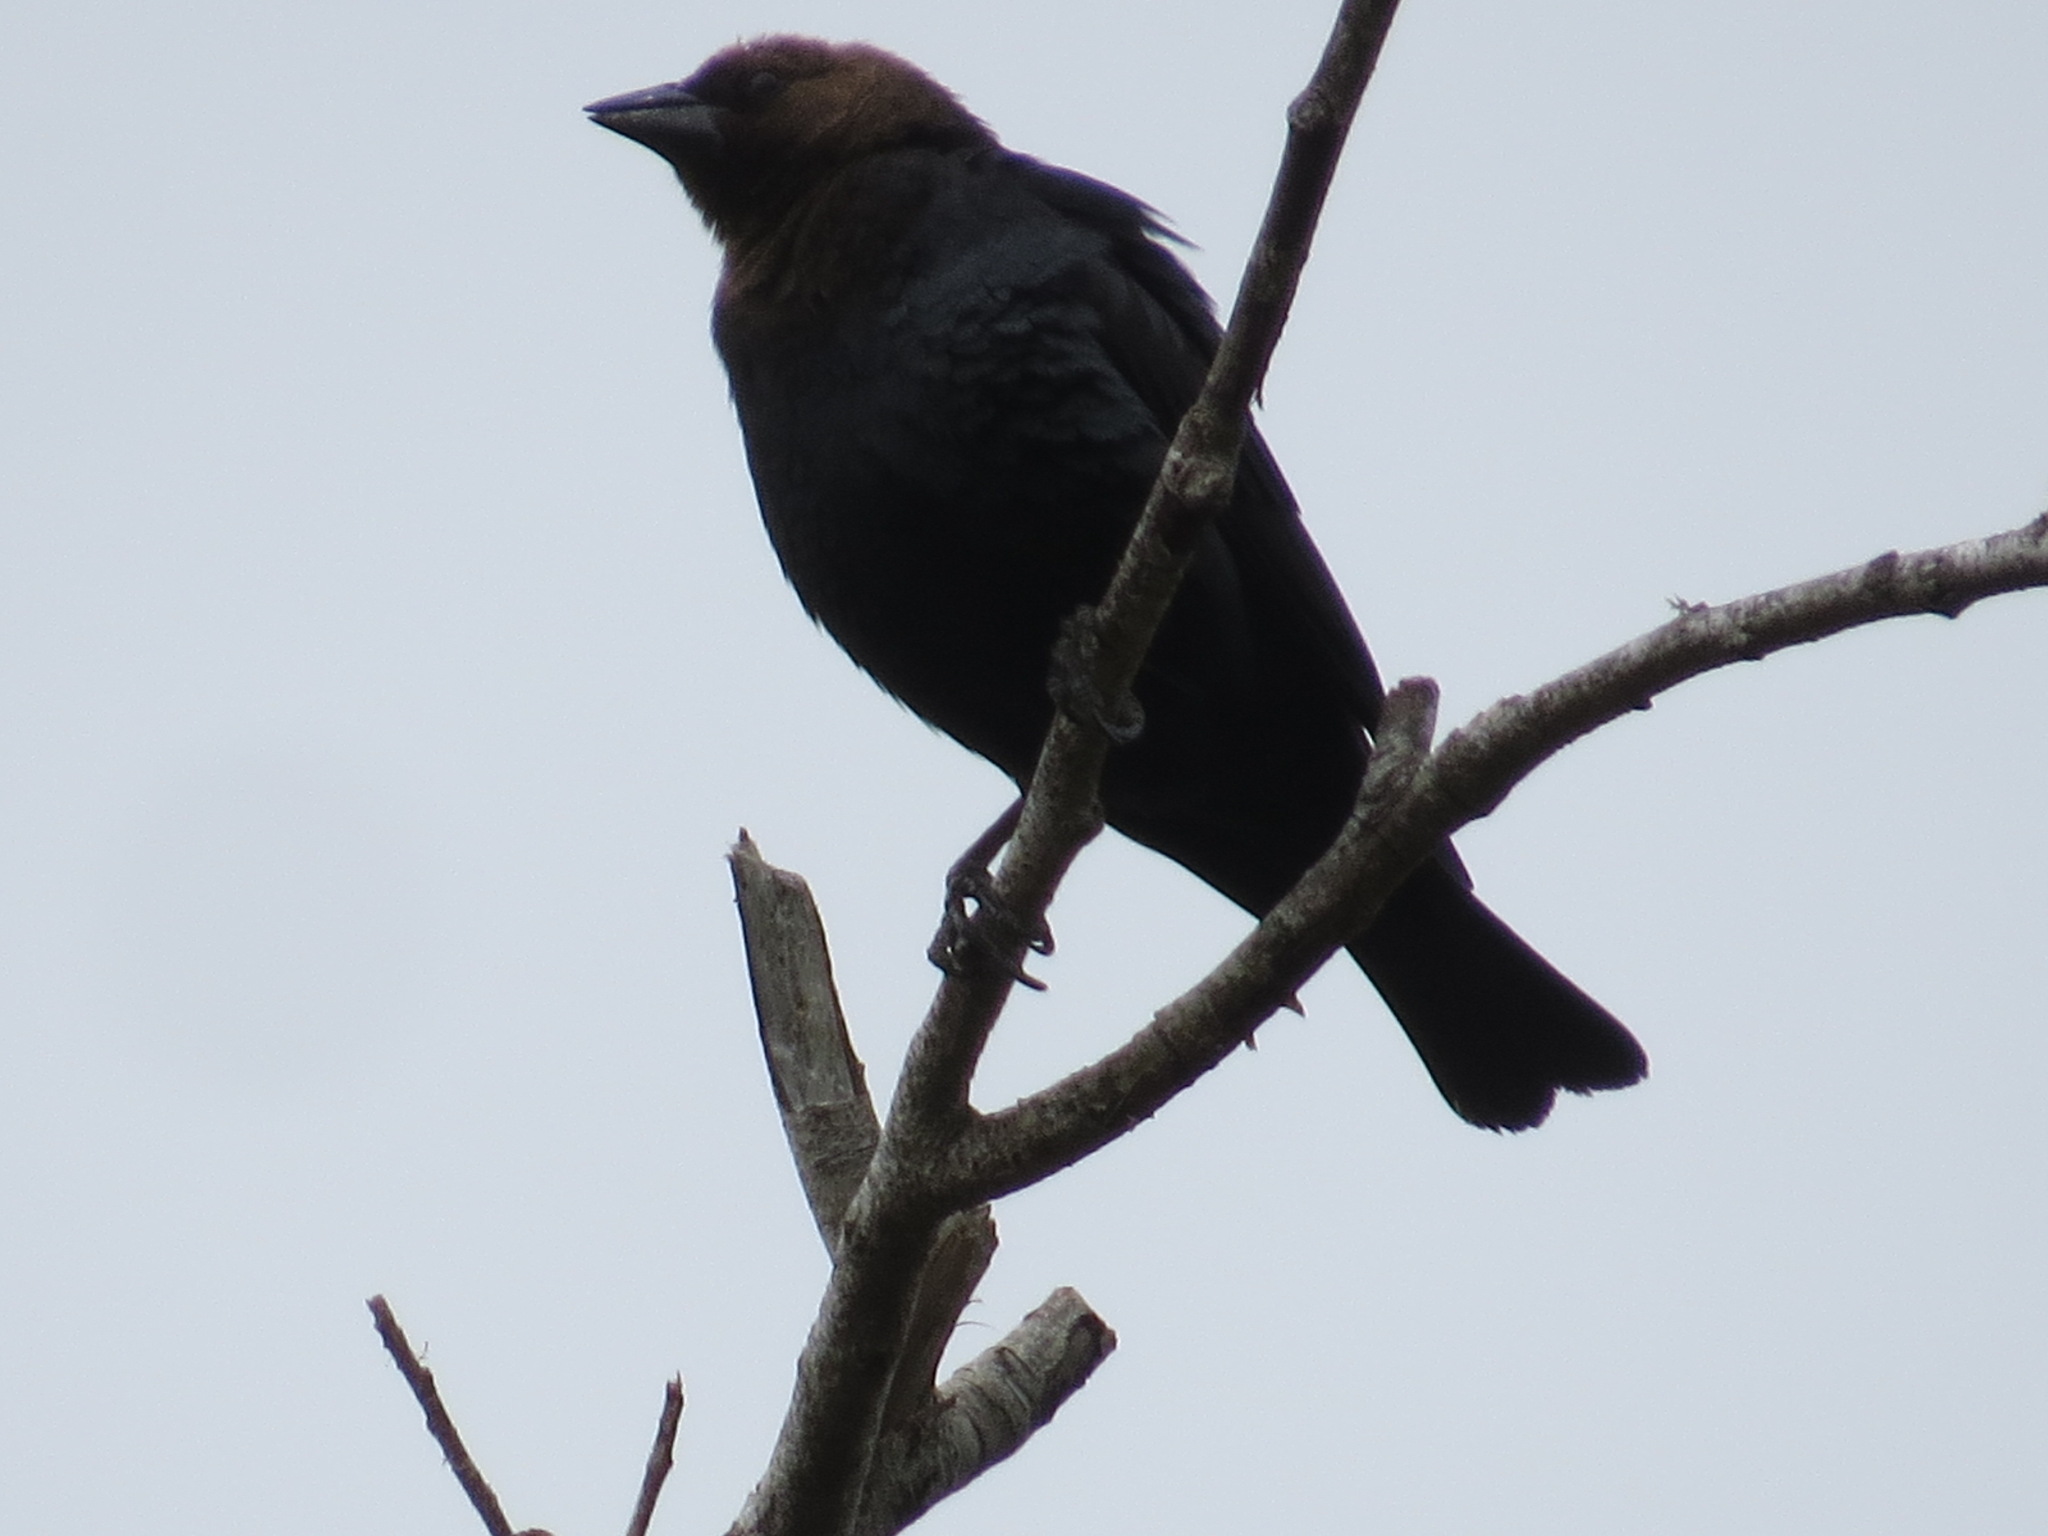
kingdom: Animalia
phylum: Chordata
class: Aves
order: Passeriformes
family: Icteridae
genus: Molothrus
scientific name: Molothrus ater
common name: Brown-headed cowbird
